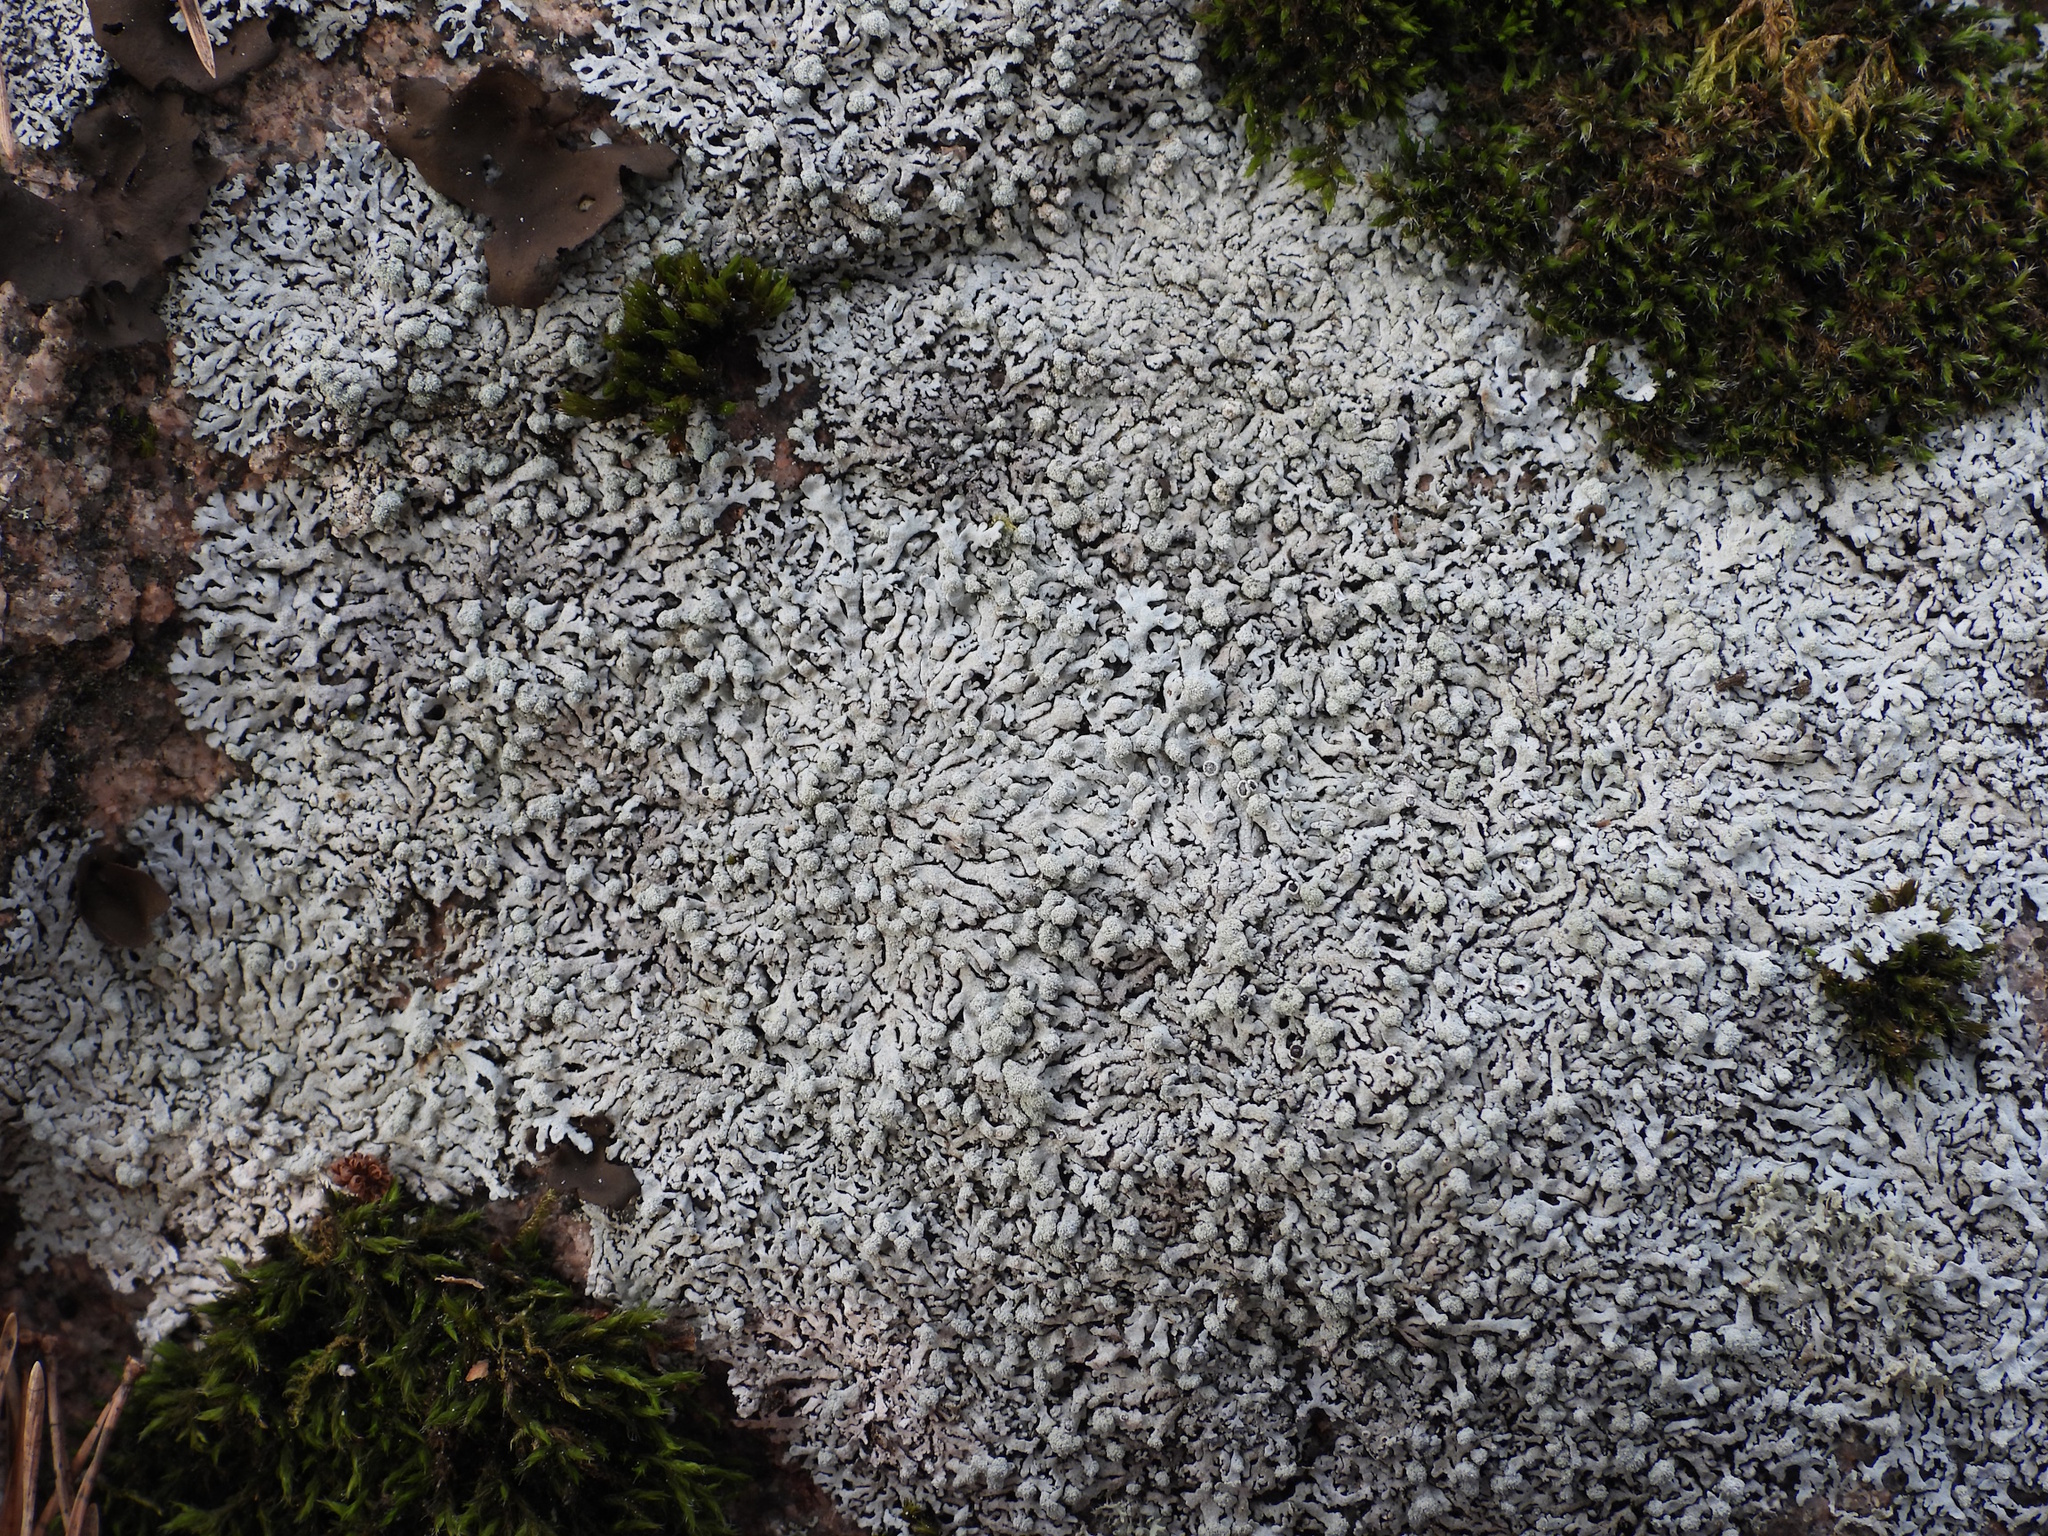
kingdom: Fungi
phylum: Ascomycota
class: Lecanoromycetes
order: Caliciales
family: Physciaceae
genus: Physcia
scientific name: Physcia caesia
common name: Blue-gray rosette lichen
